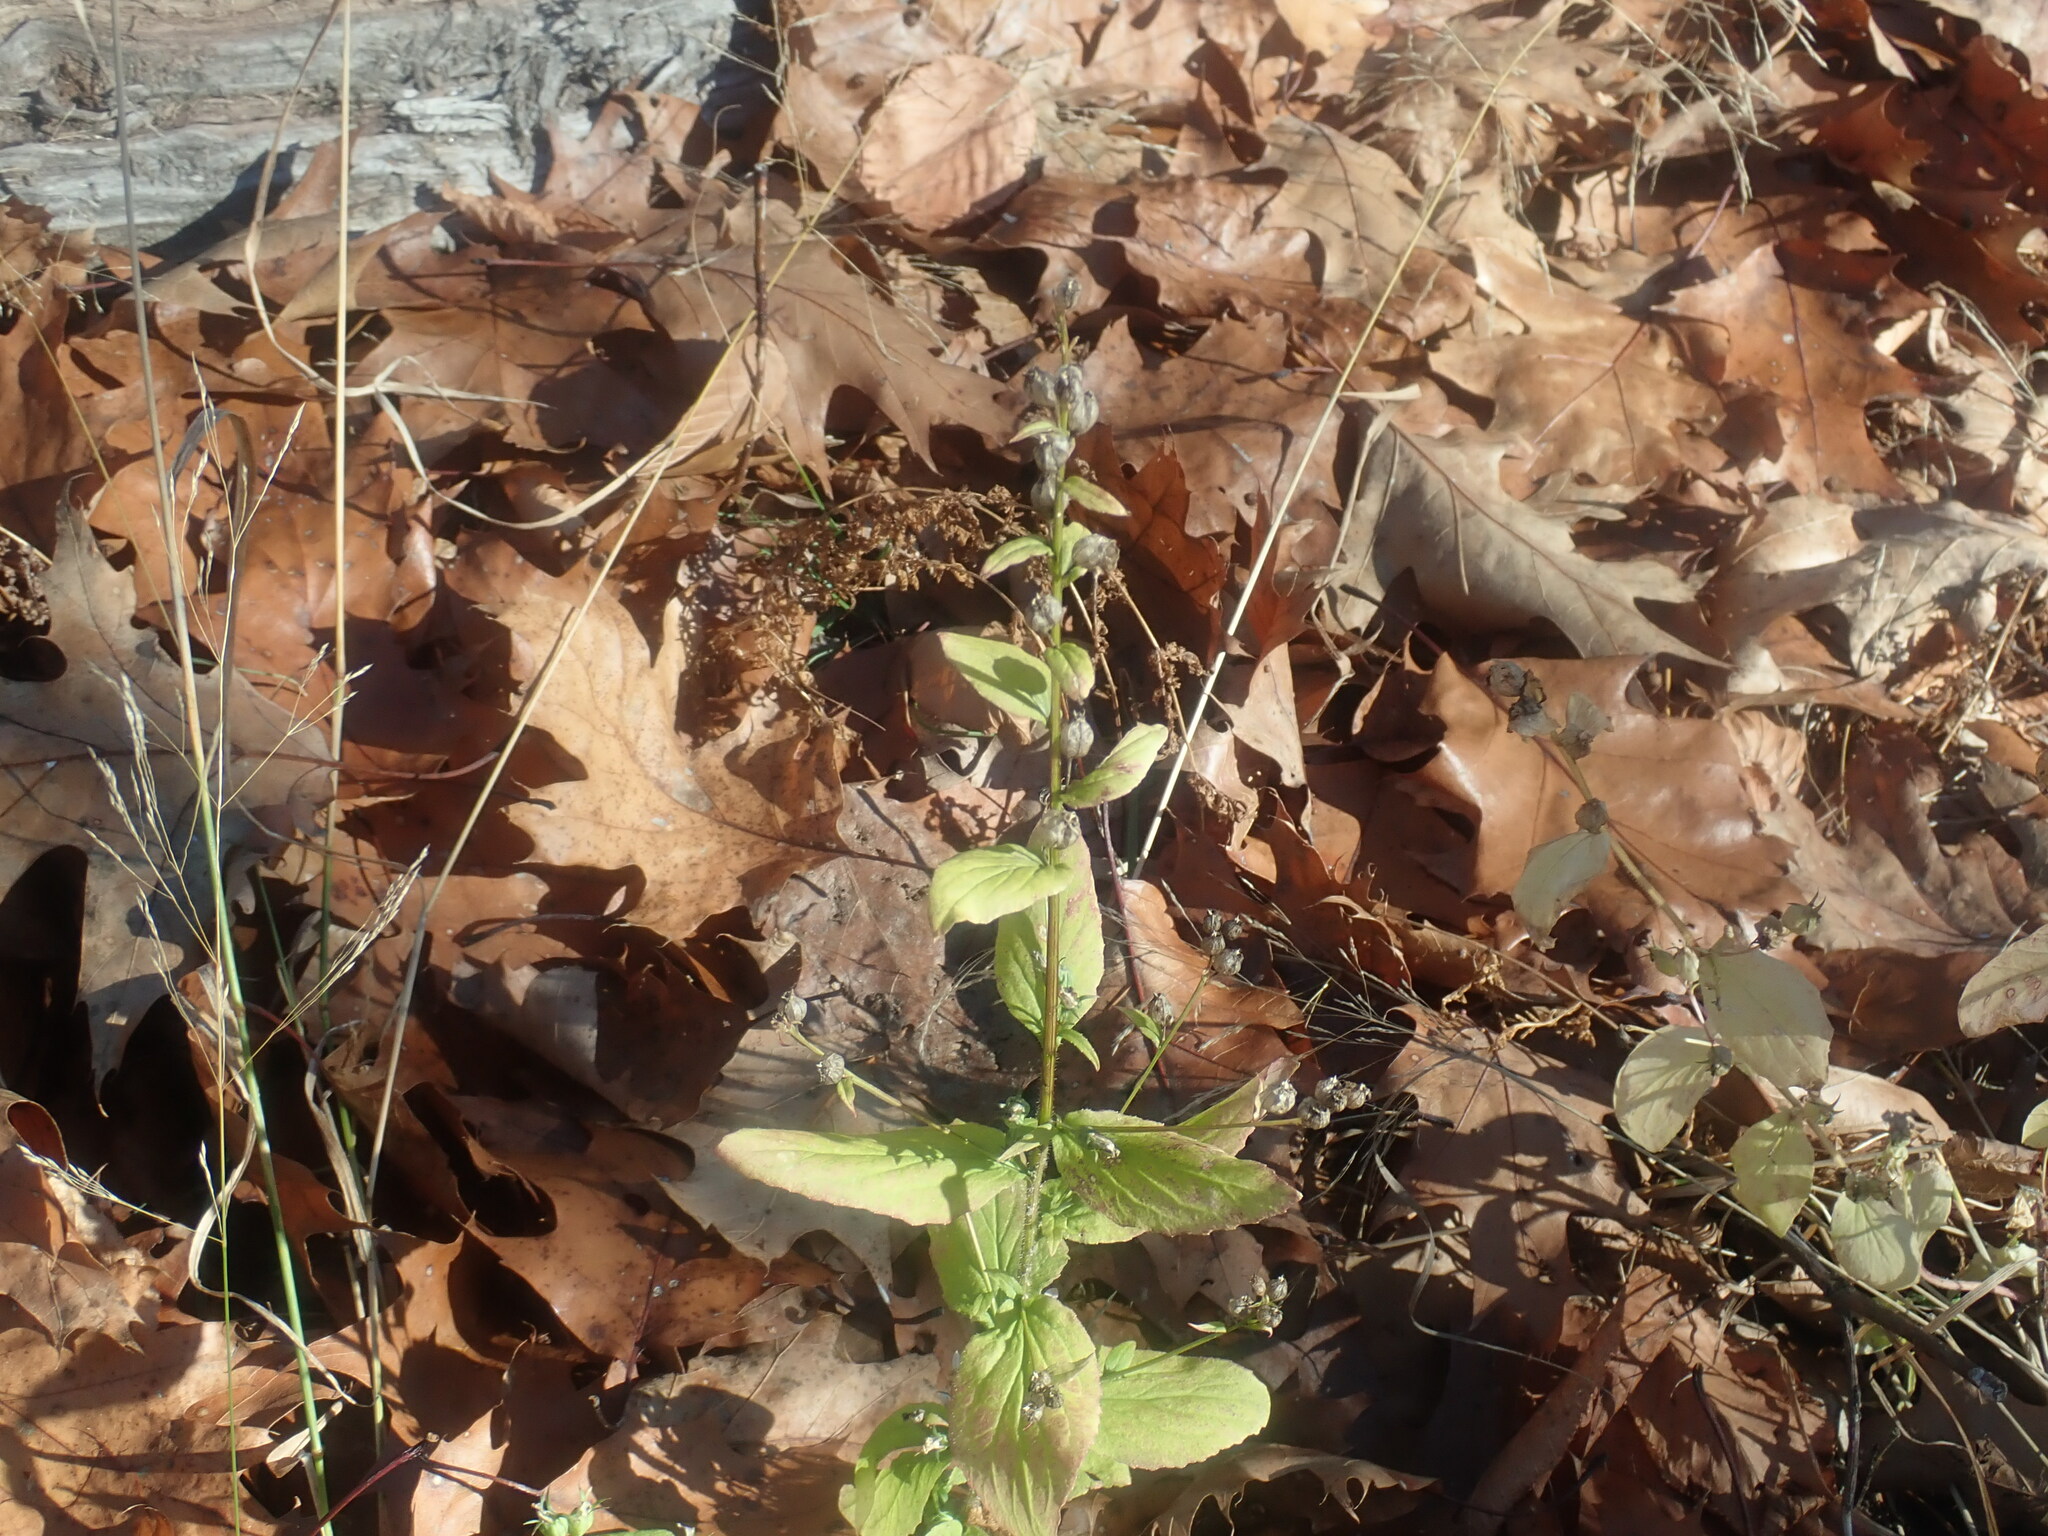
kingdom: Plantae
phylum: Tracheophyta
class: Magnoliopsida
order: Asterales
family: Campanulaceae
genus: Lobelia
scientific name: Lobelia inflata
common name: Indian tobacco
